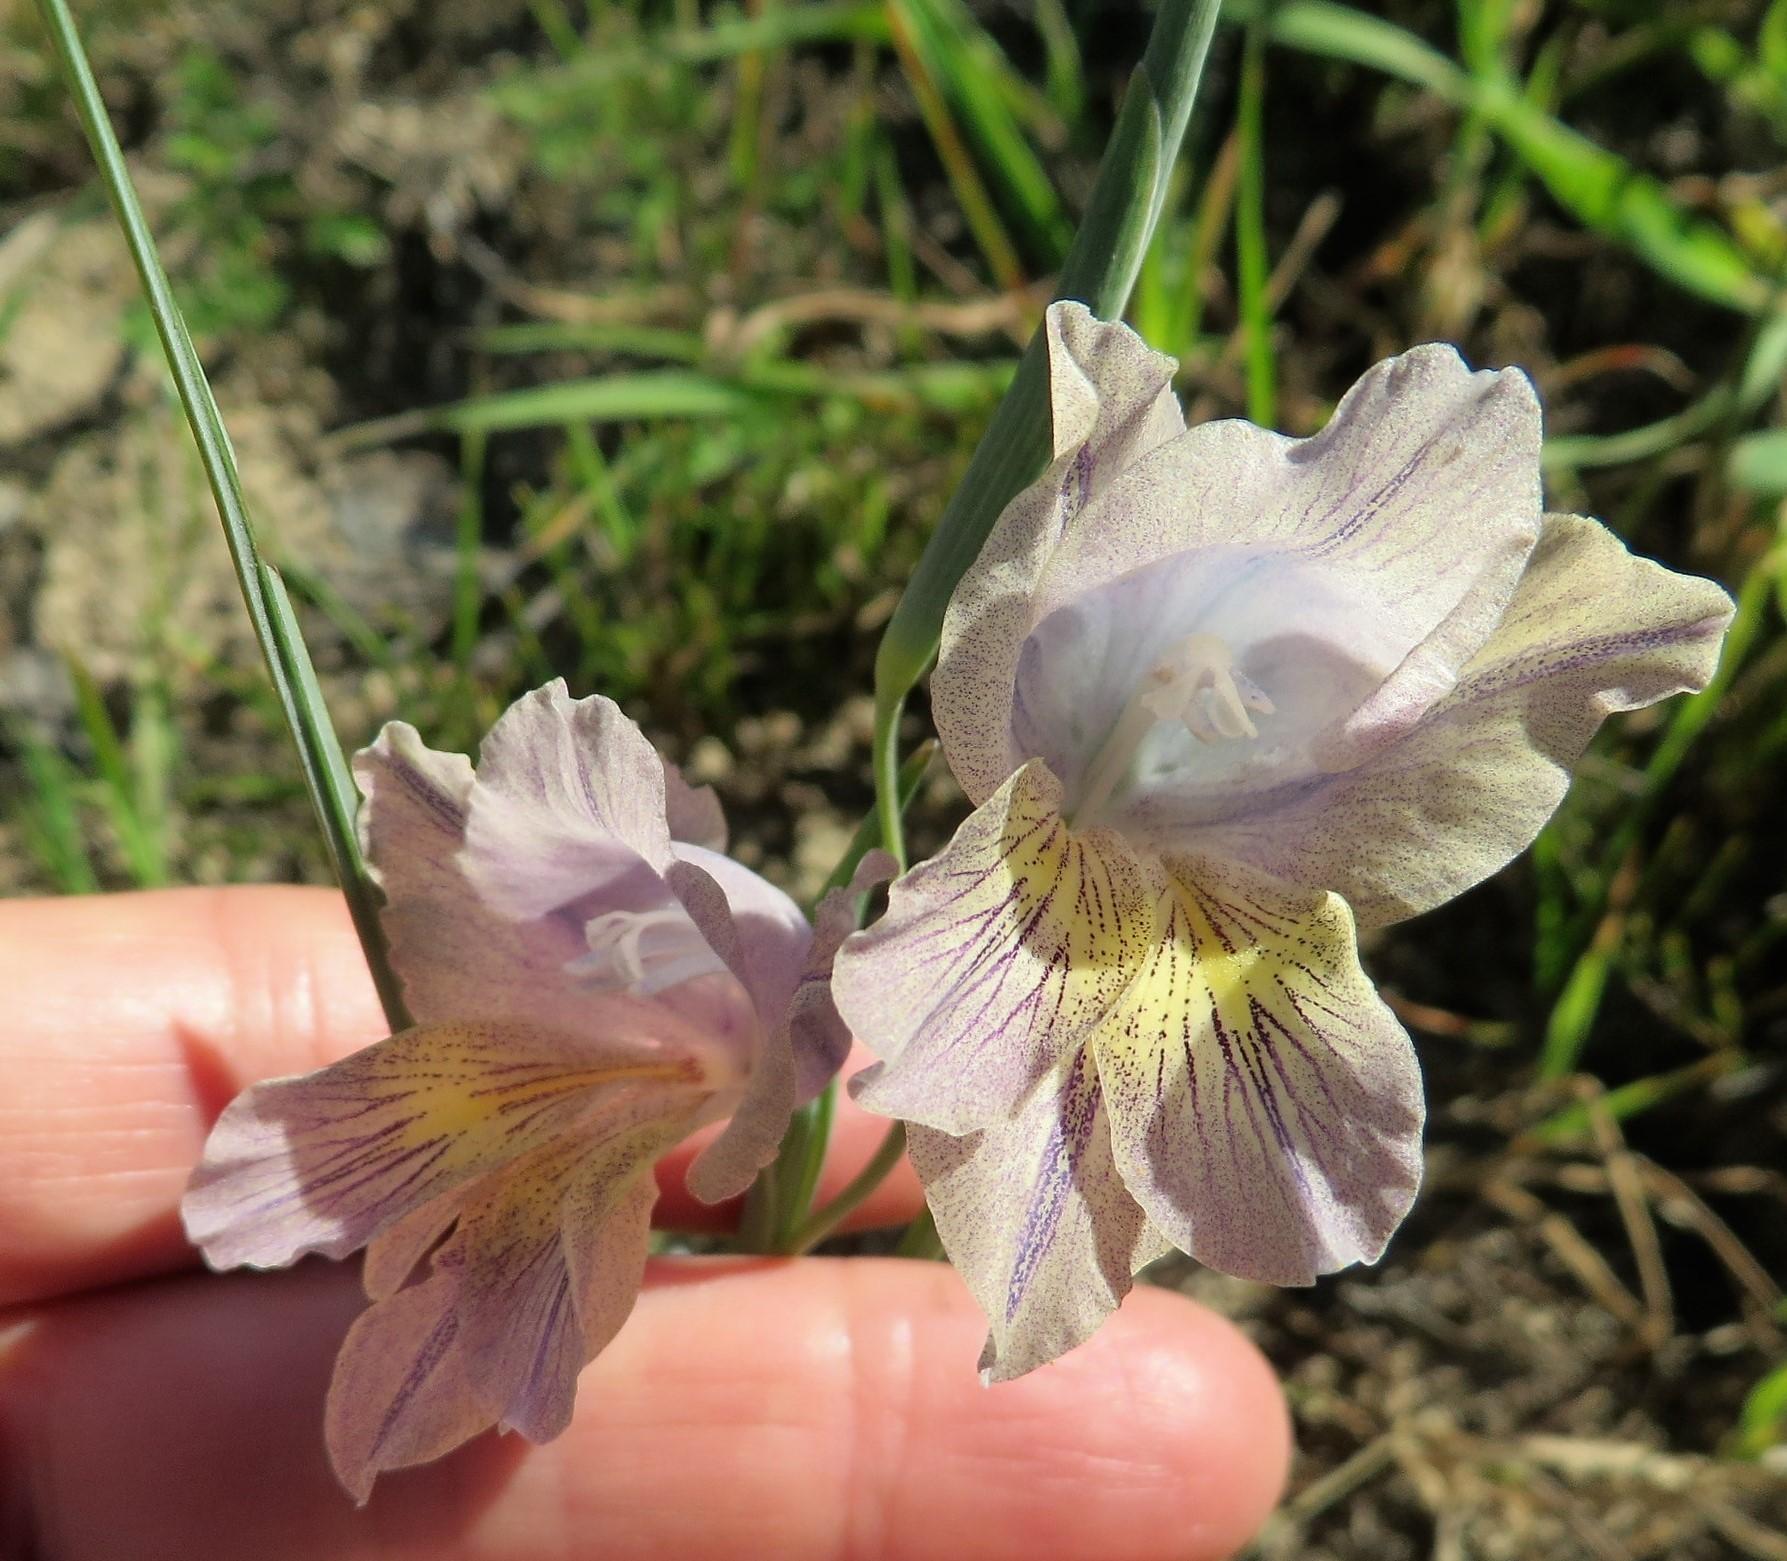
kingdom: Plantae
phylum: Tracheophyta
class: Liliopsida
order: Asparagales
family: Iridaceae
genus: Gladiolus
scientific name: Gladiolus carinatus
